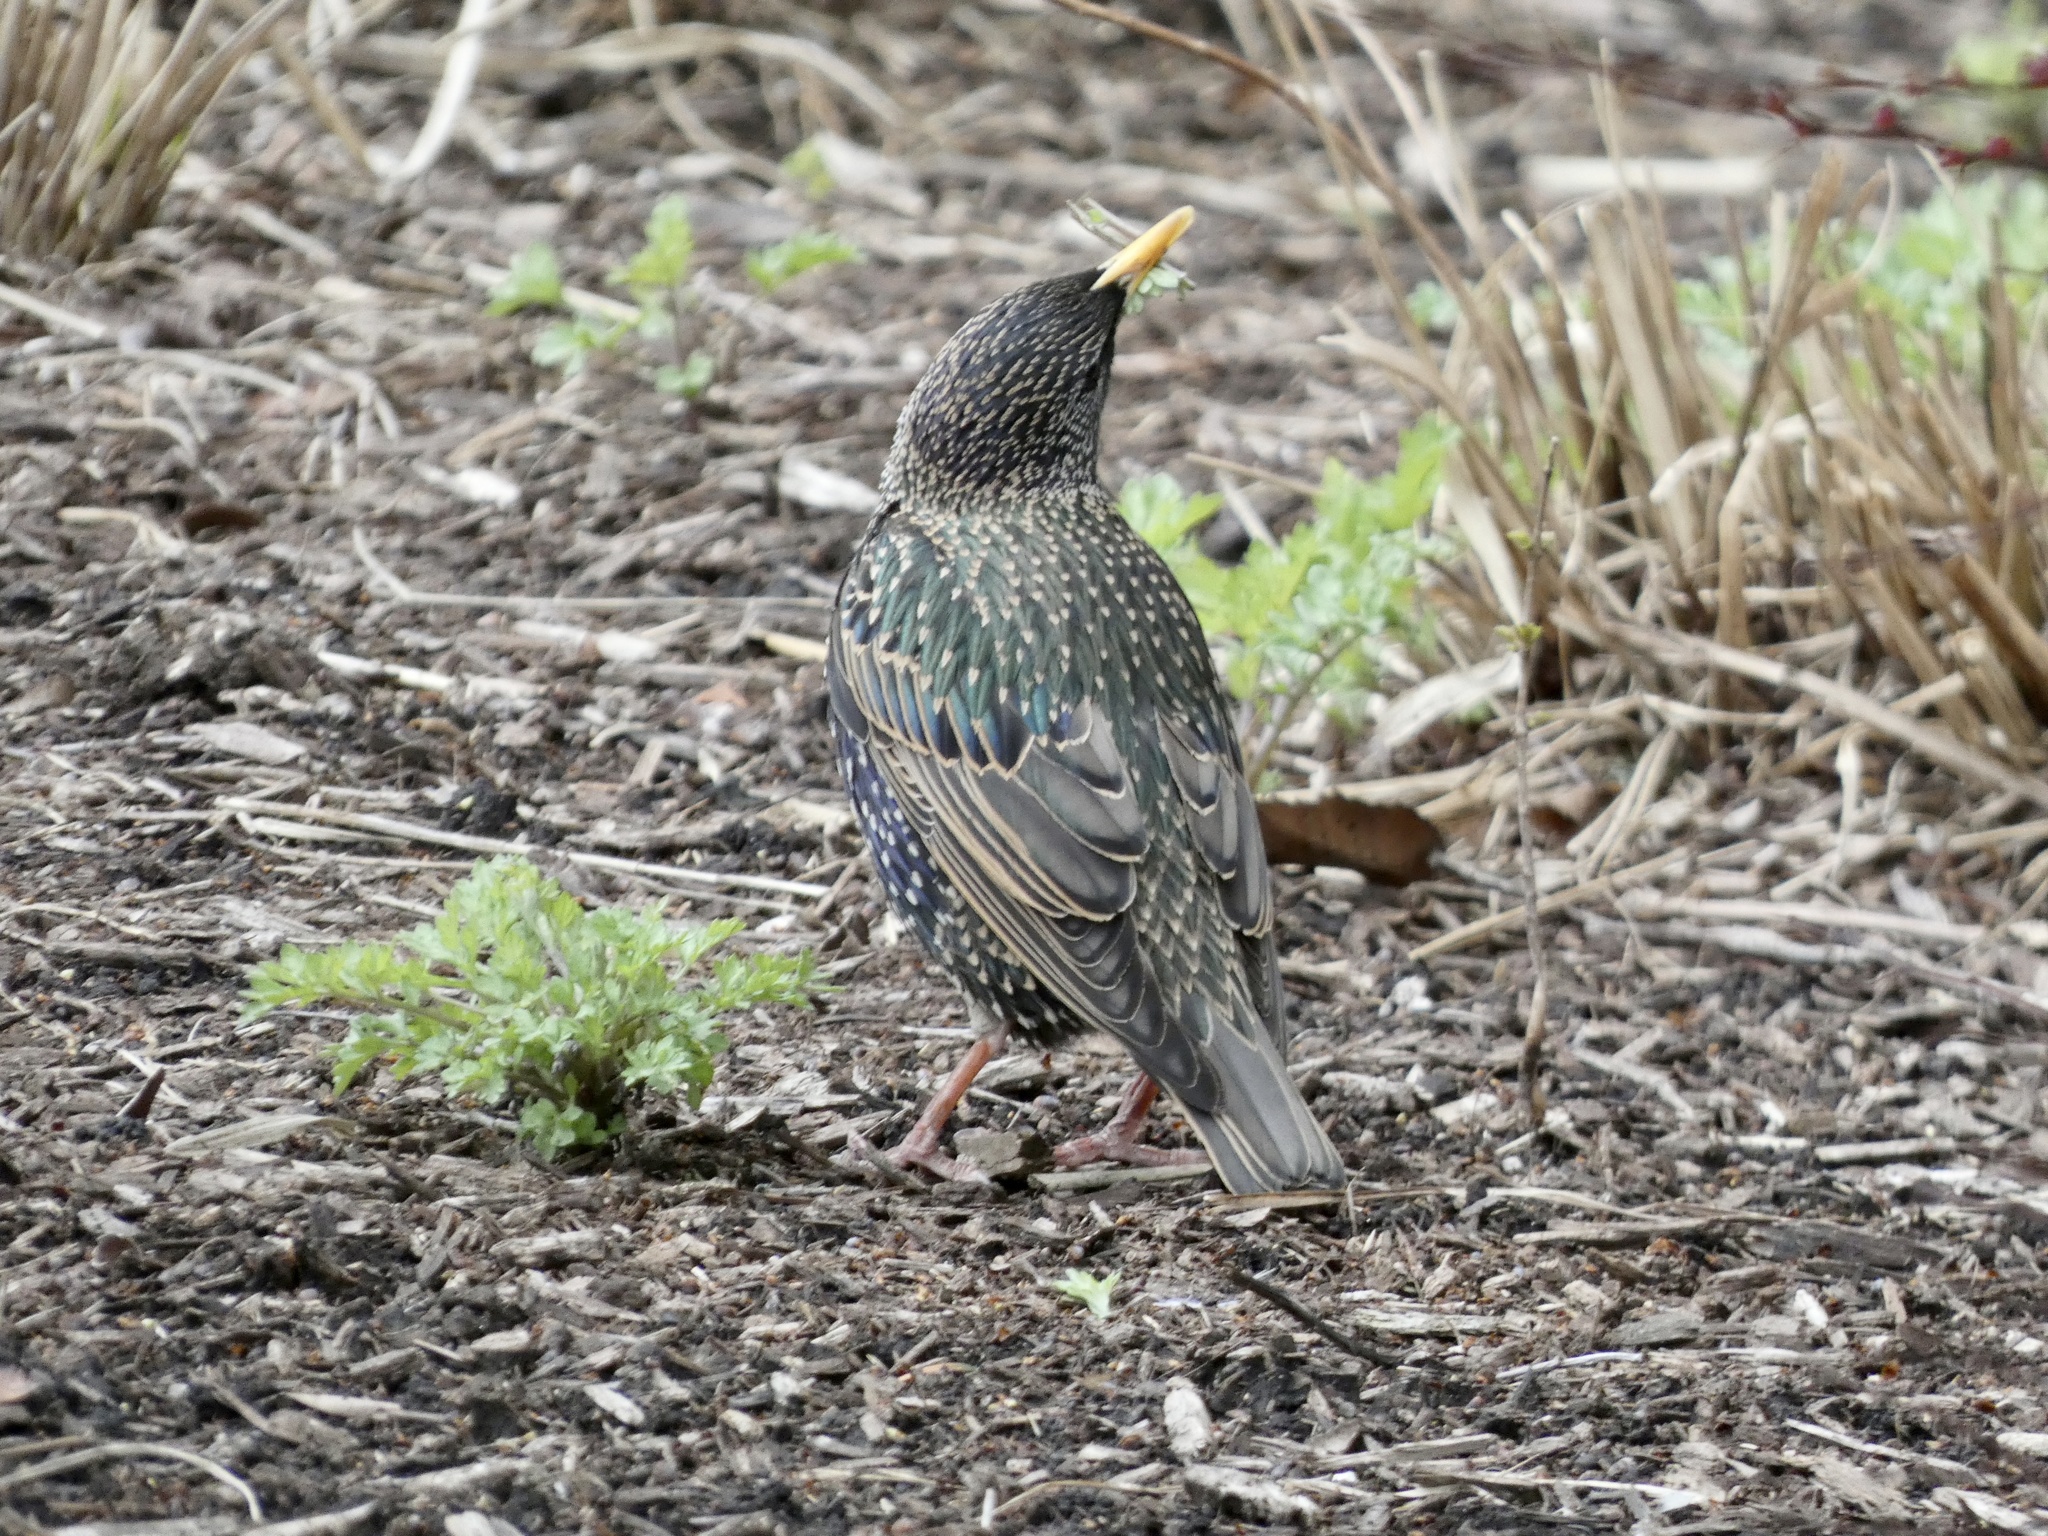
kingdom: Animalia
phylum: Chordata
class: Aves
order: Passeriformes
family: Sturnidae
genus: Sturnus
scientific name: Sturnus vulgaris
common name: Common starling
